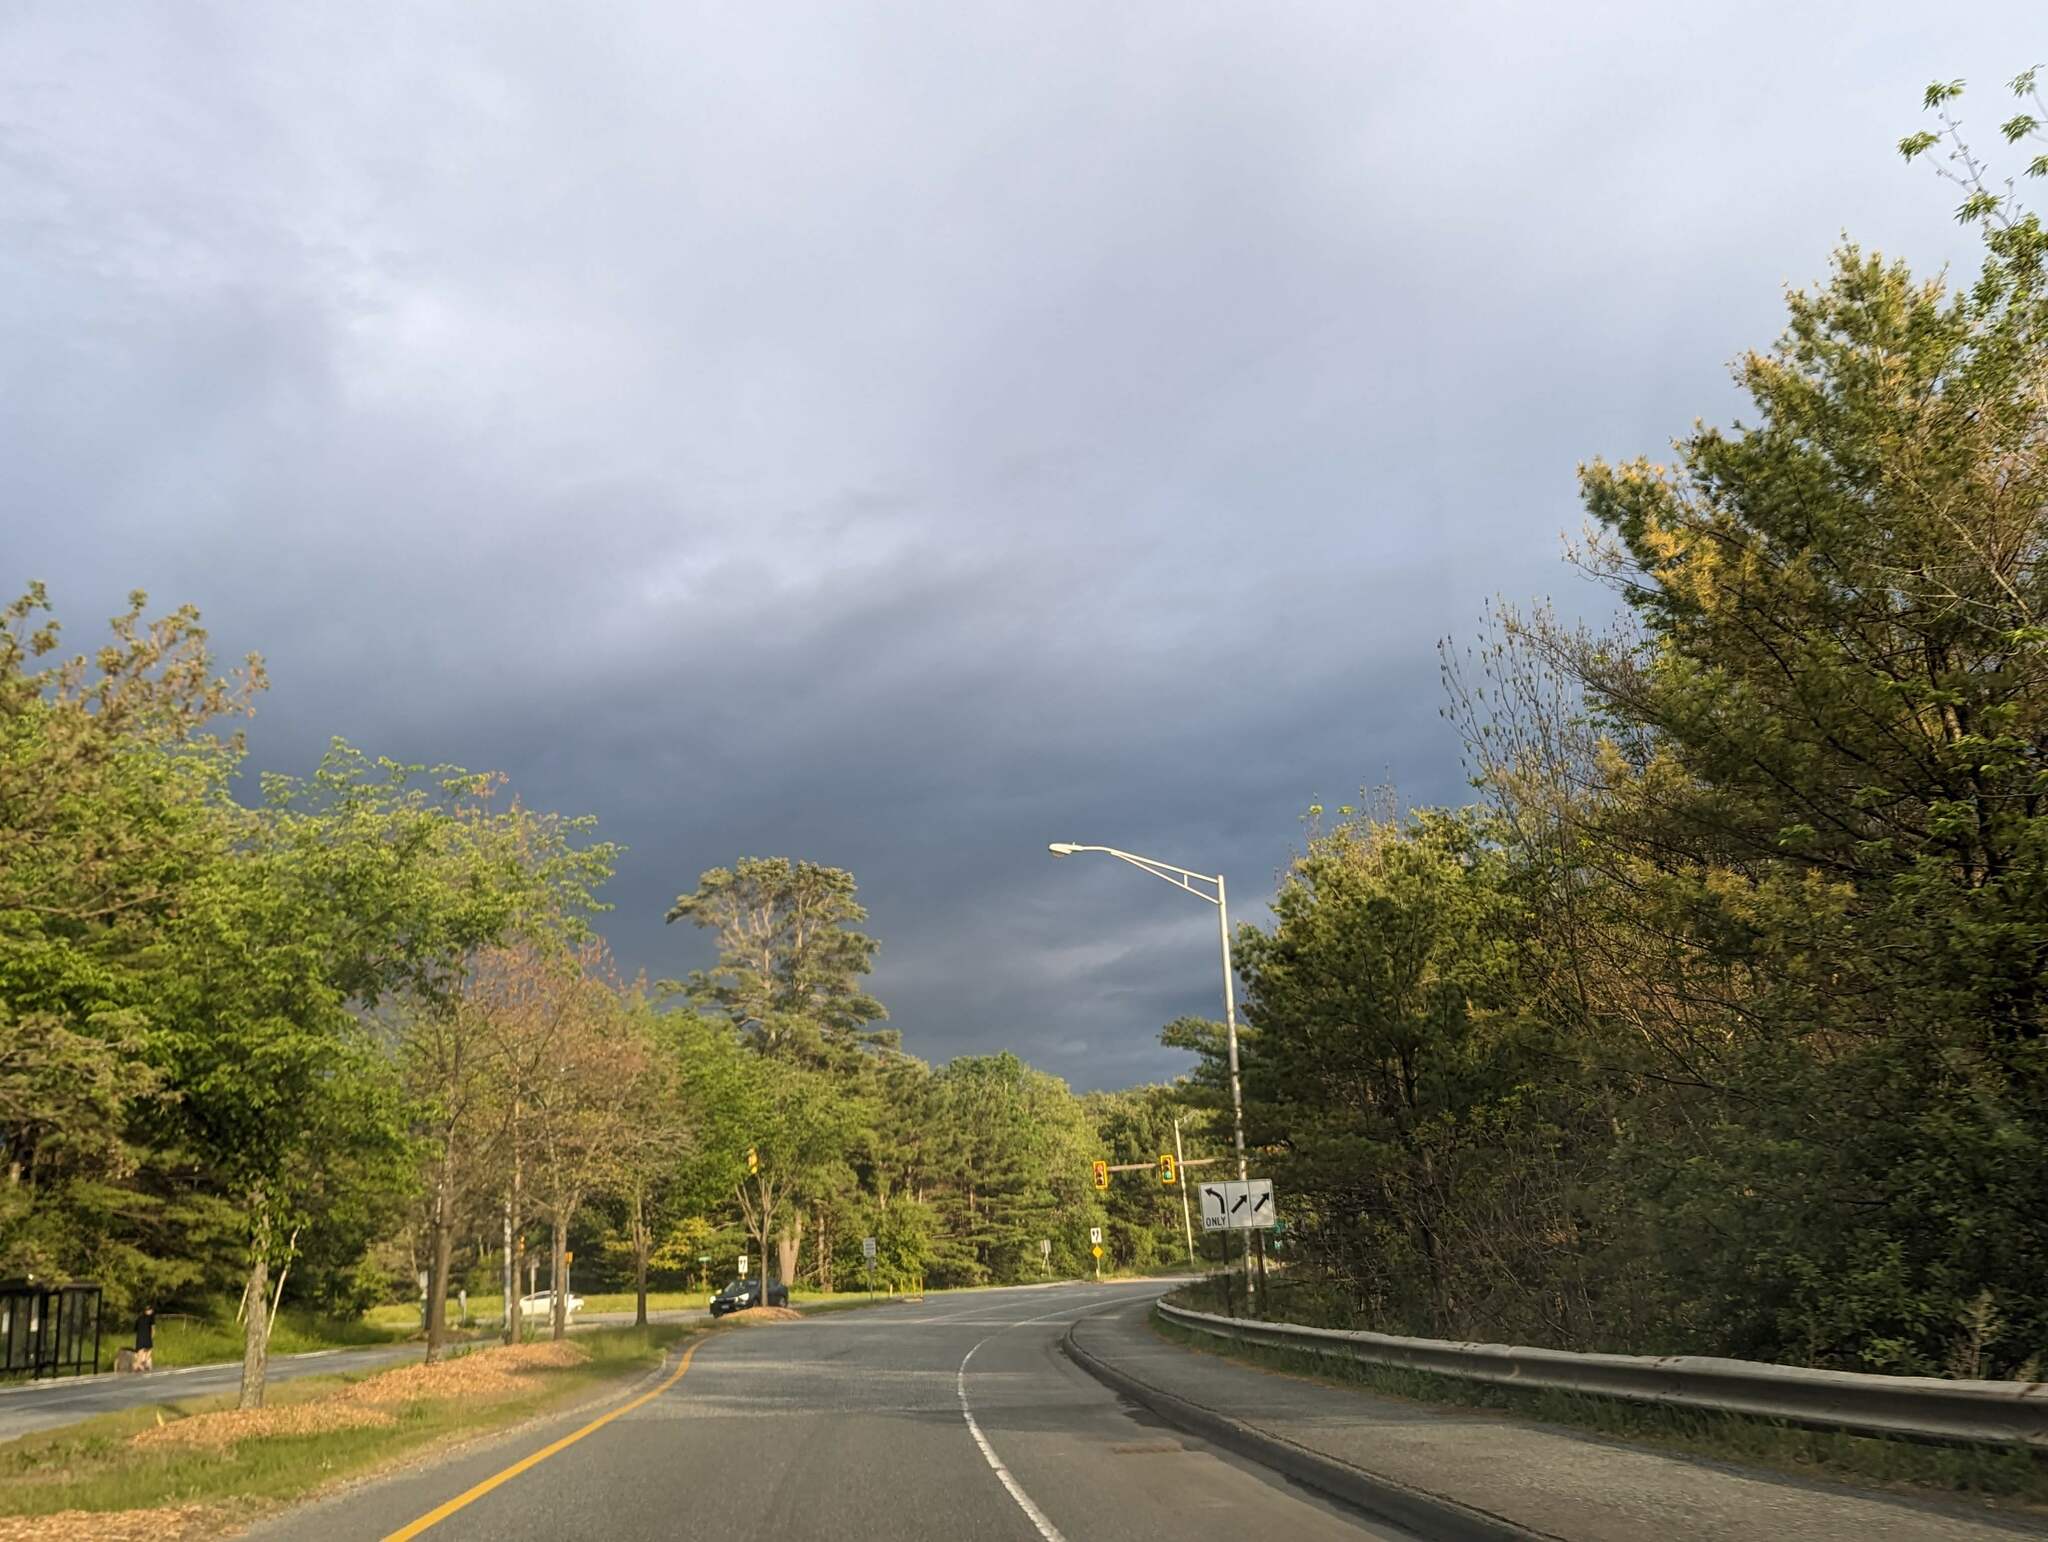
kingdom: Plantae
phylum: Tracheophyta
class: Pinopsida
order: Pinales
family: Pinaceae
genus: Pinus
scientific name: Pinus strobus
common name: Weymouth pine
